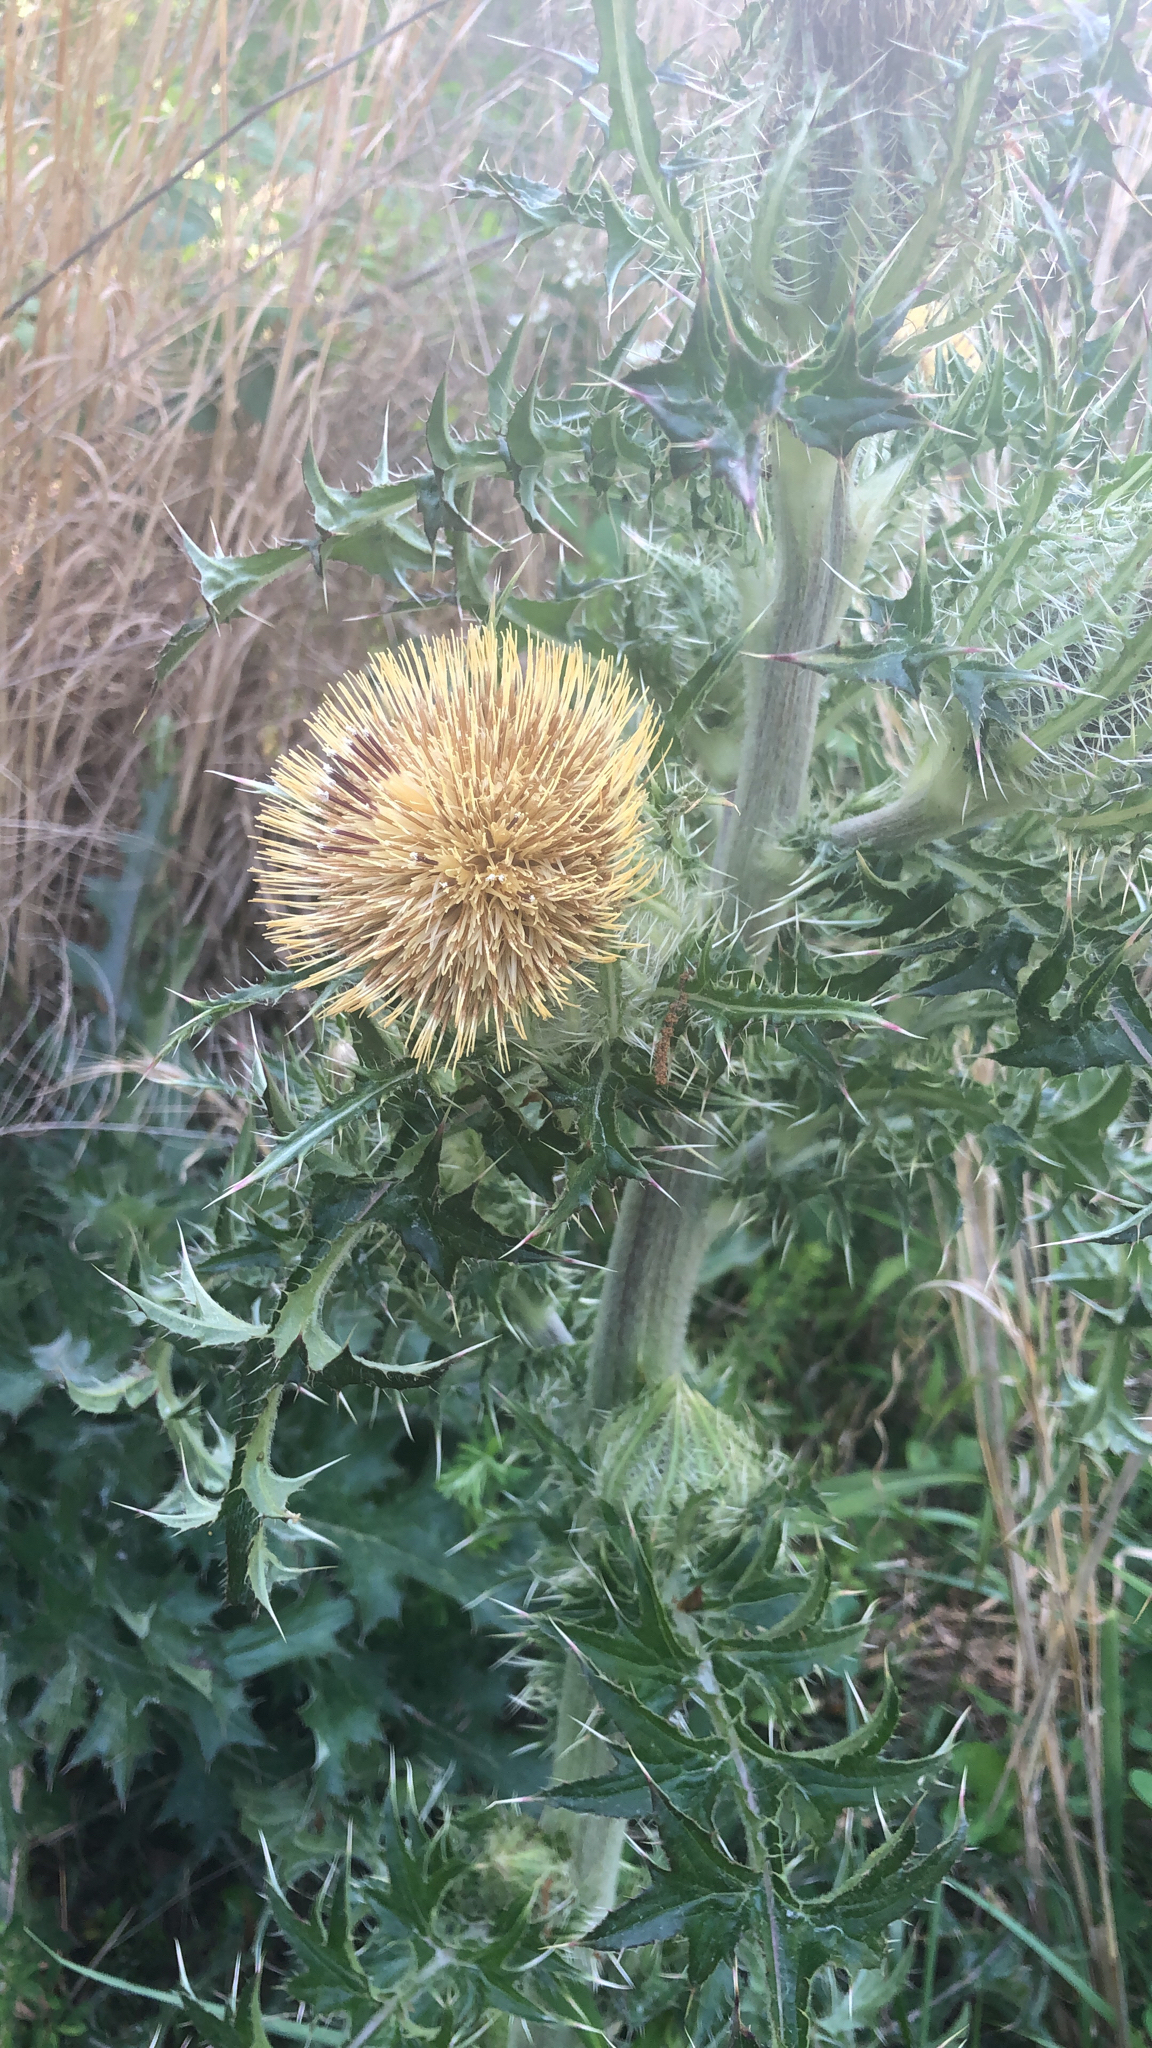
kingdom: Plantae
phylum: Tracheophyta
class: Magnoliopsida
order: Asterales
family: Asteraceae
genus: Cirsium
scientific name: Cirsium horridulum
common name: Bristly thistle
